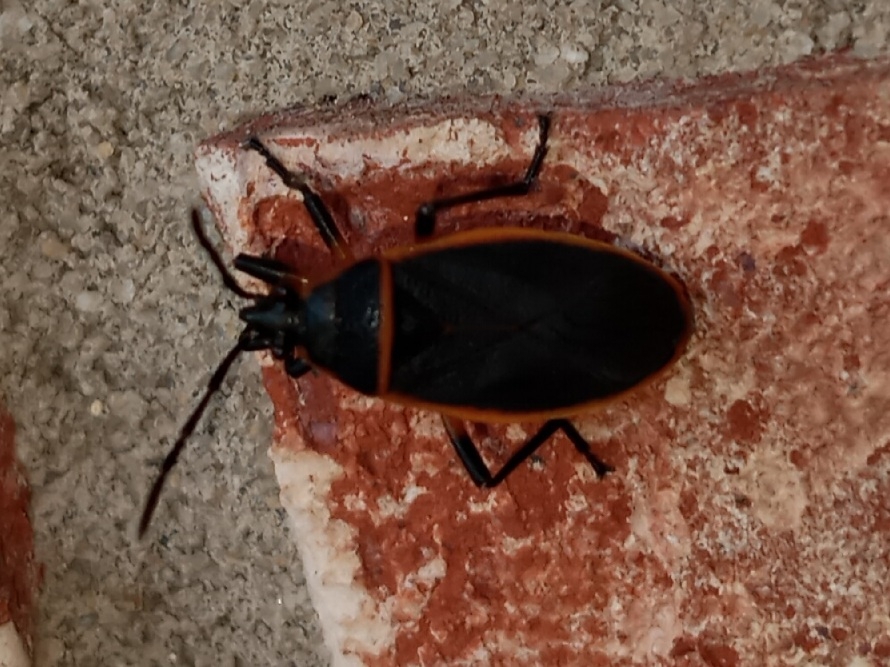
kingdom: Animalia
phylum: Arthropoda
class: Insecta
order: Hemiptera
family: Largidae
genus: Largus
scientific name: Largus succinctus
